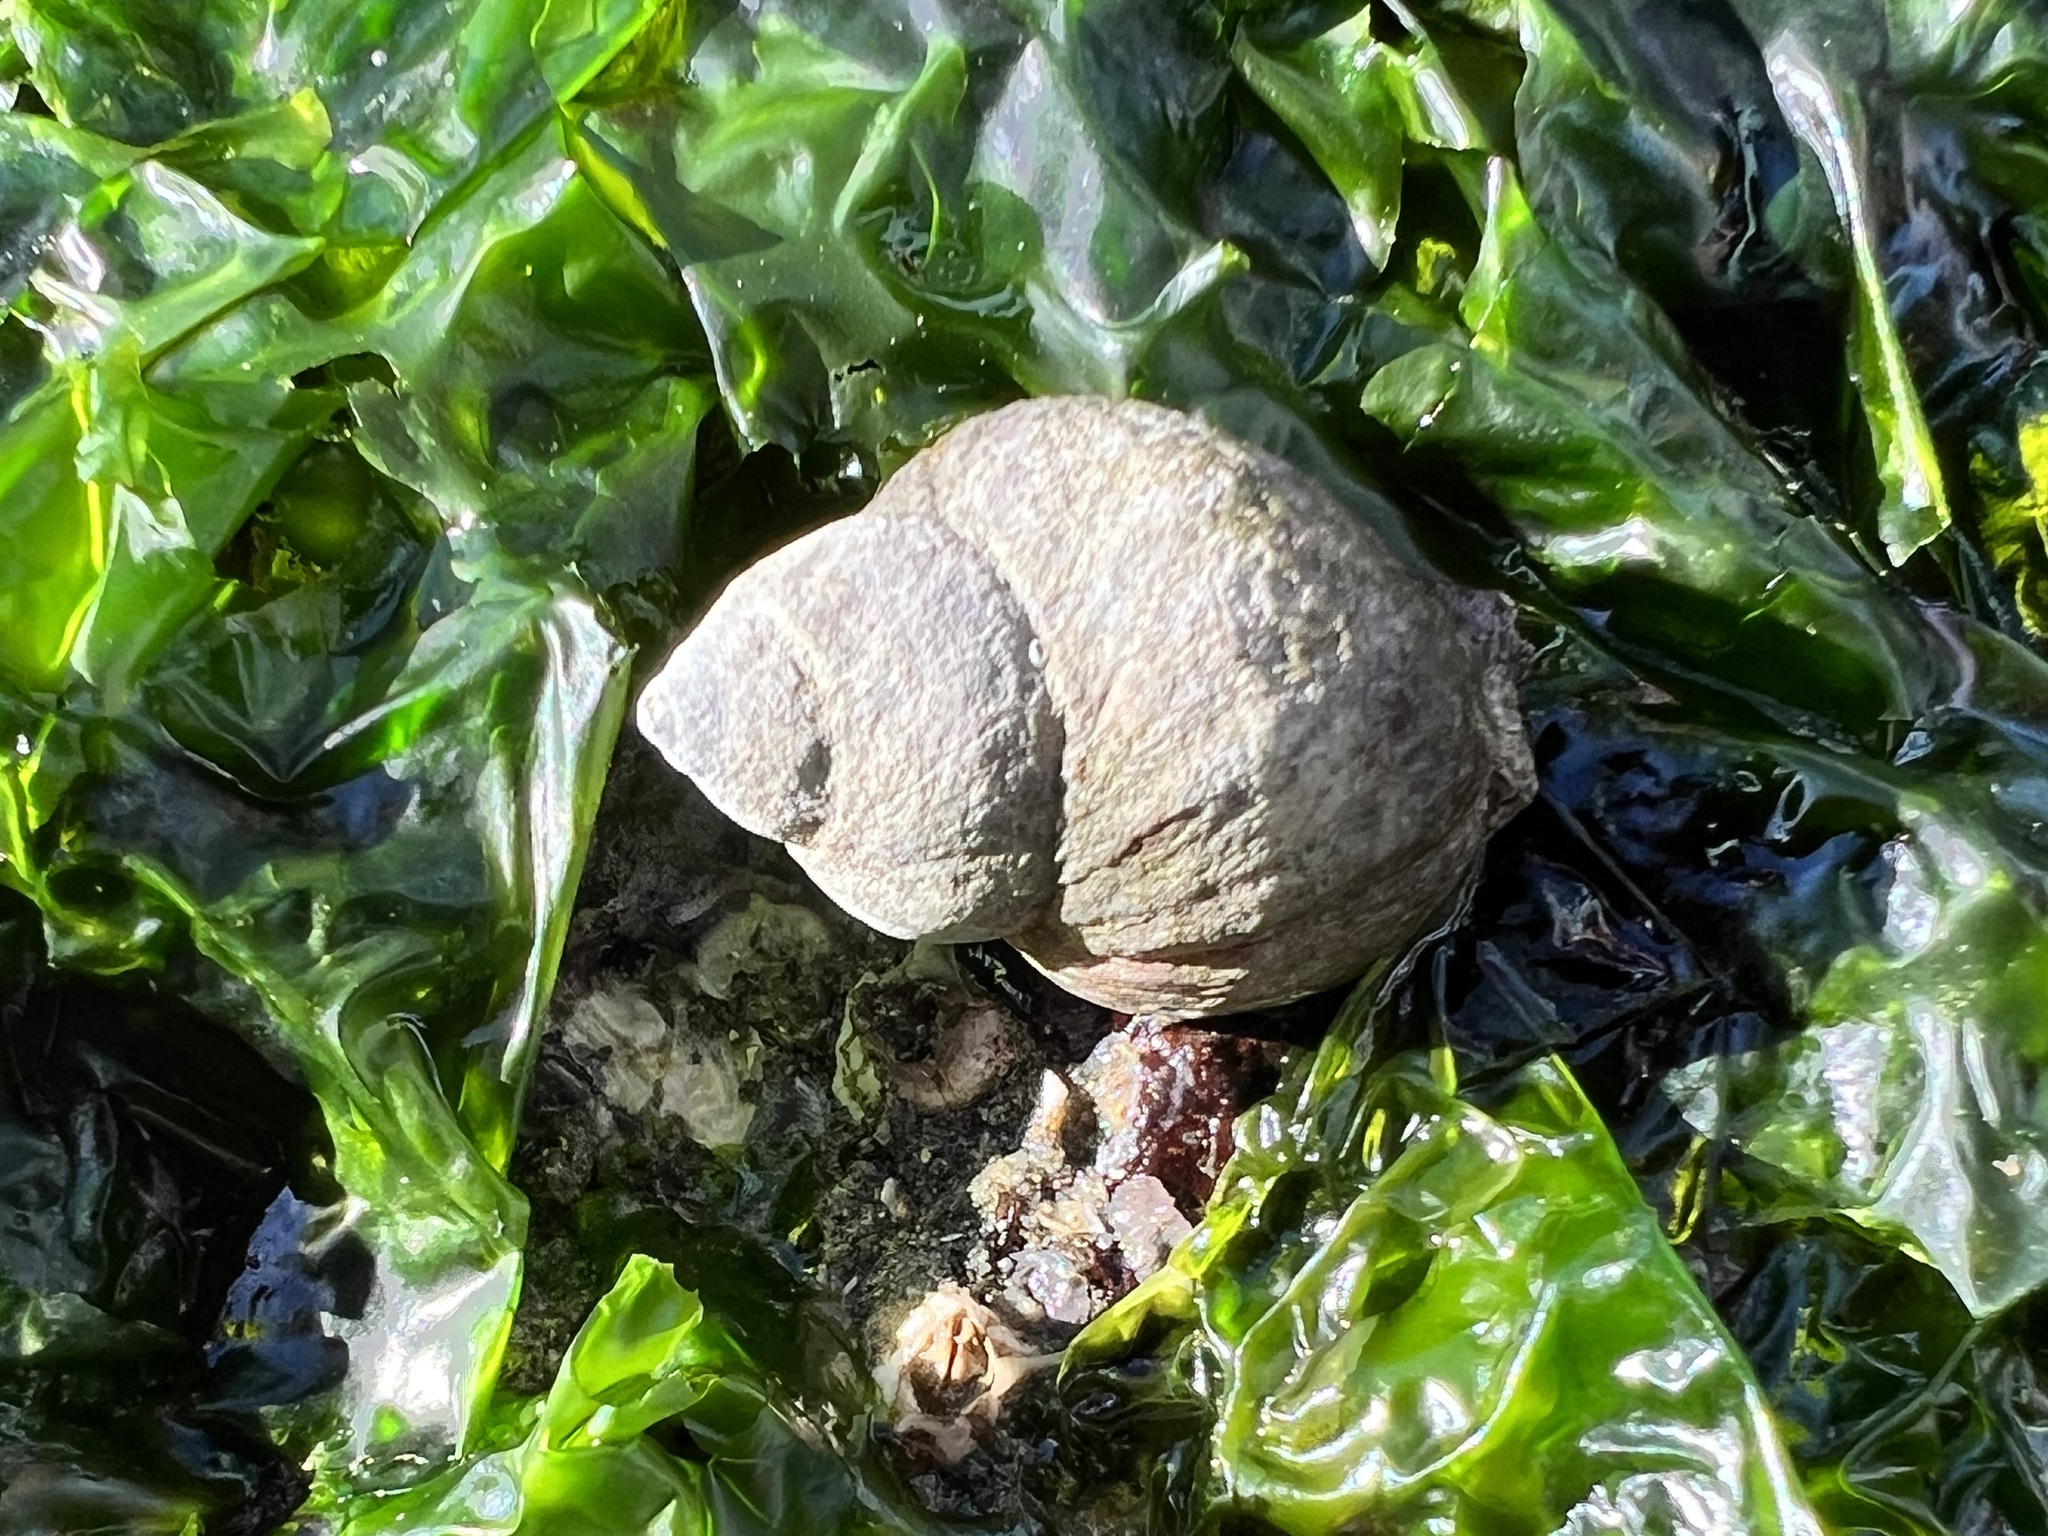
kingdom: Animalia
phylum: Mollusca
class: Gastropoda
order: Neogastropoda
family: Muricidae
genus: Nucella
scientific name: Nucella lamellosa
